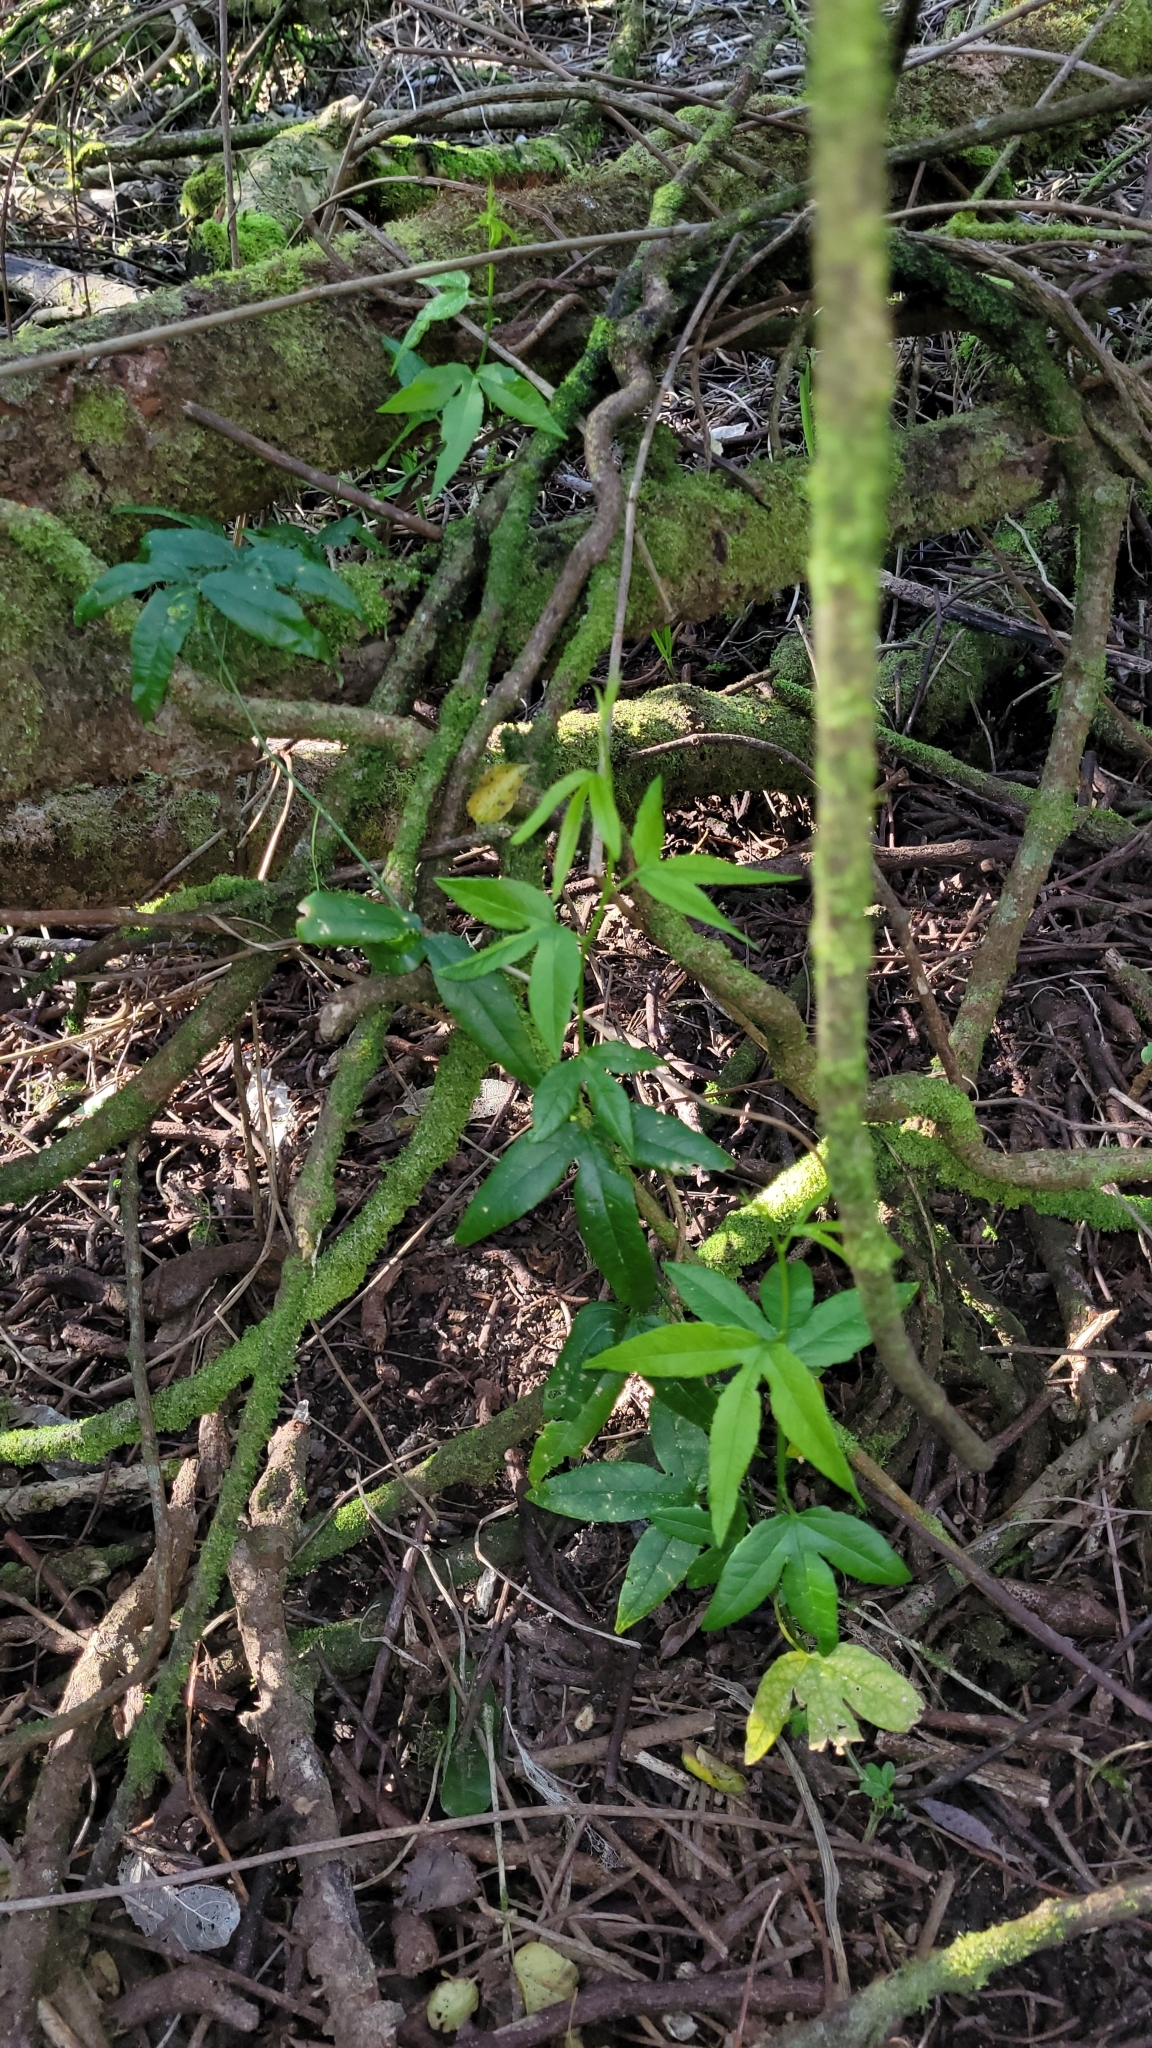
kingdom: Plantae
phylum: Tracheophyta
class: Magnoliopsida
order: Malpighiales
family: Passifloraceae
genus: Passiflora
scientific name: Passiflora tarminiana
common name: Banana poka
